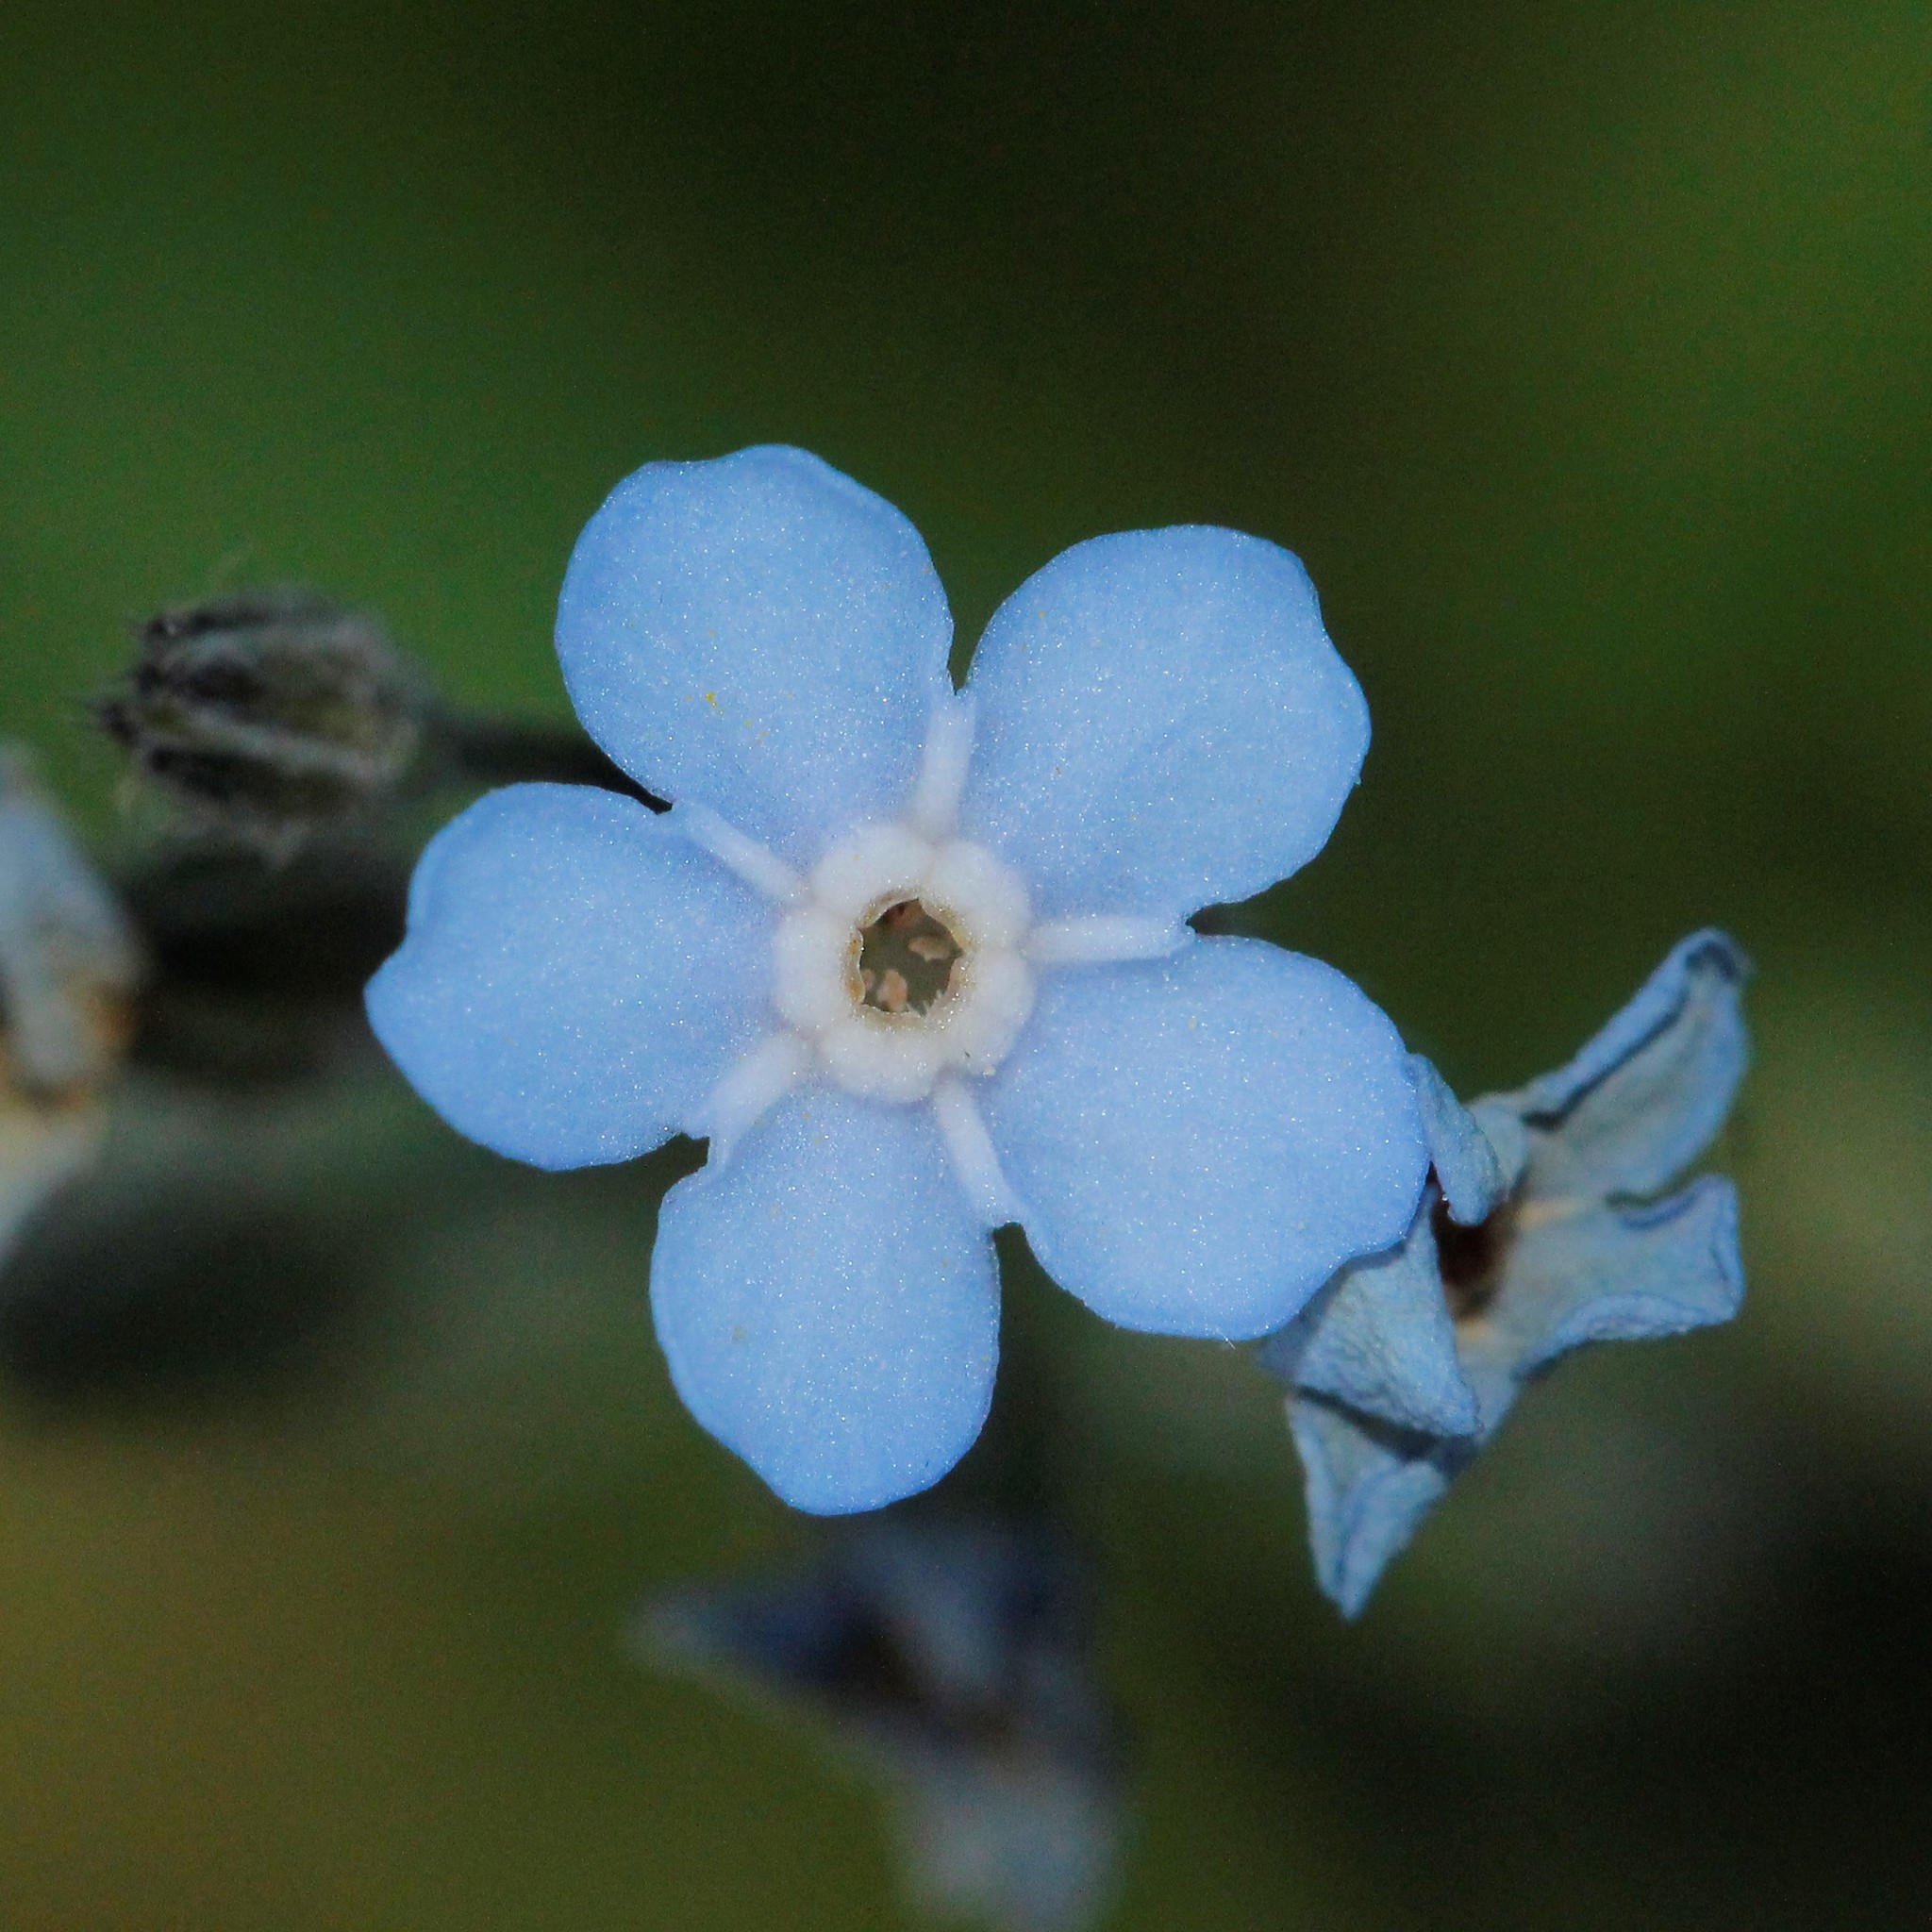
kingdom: Plantae
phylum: Tracheophyta
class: Magnoliopsida
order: Boraginales
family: Boraginaceae
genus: Myosotis
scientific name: Myosotis asiatica
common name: Asian forget-me-not
